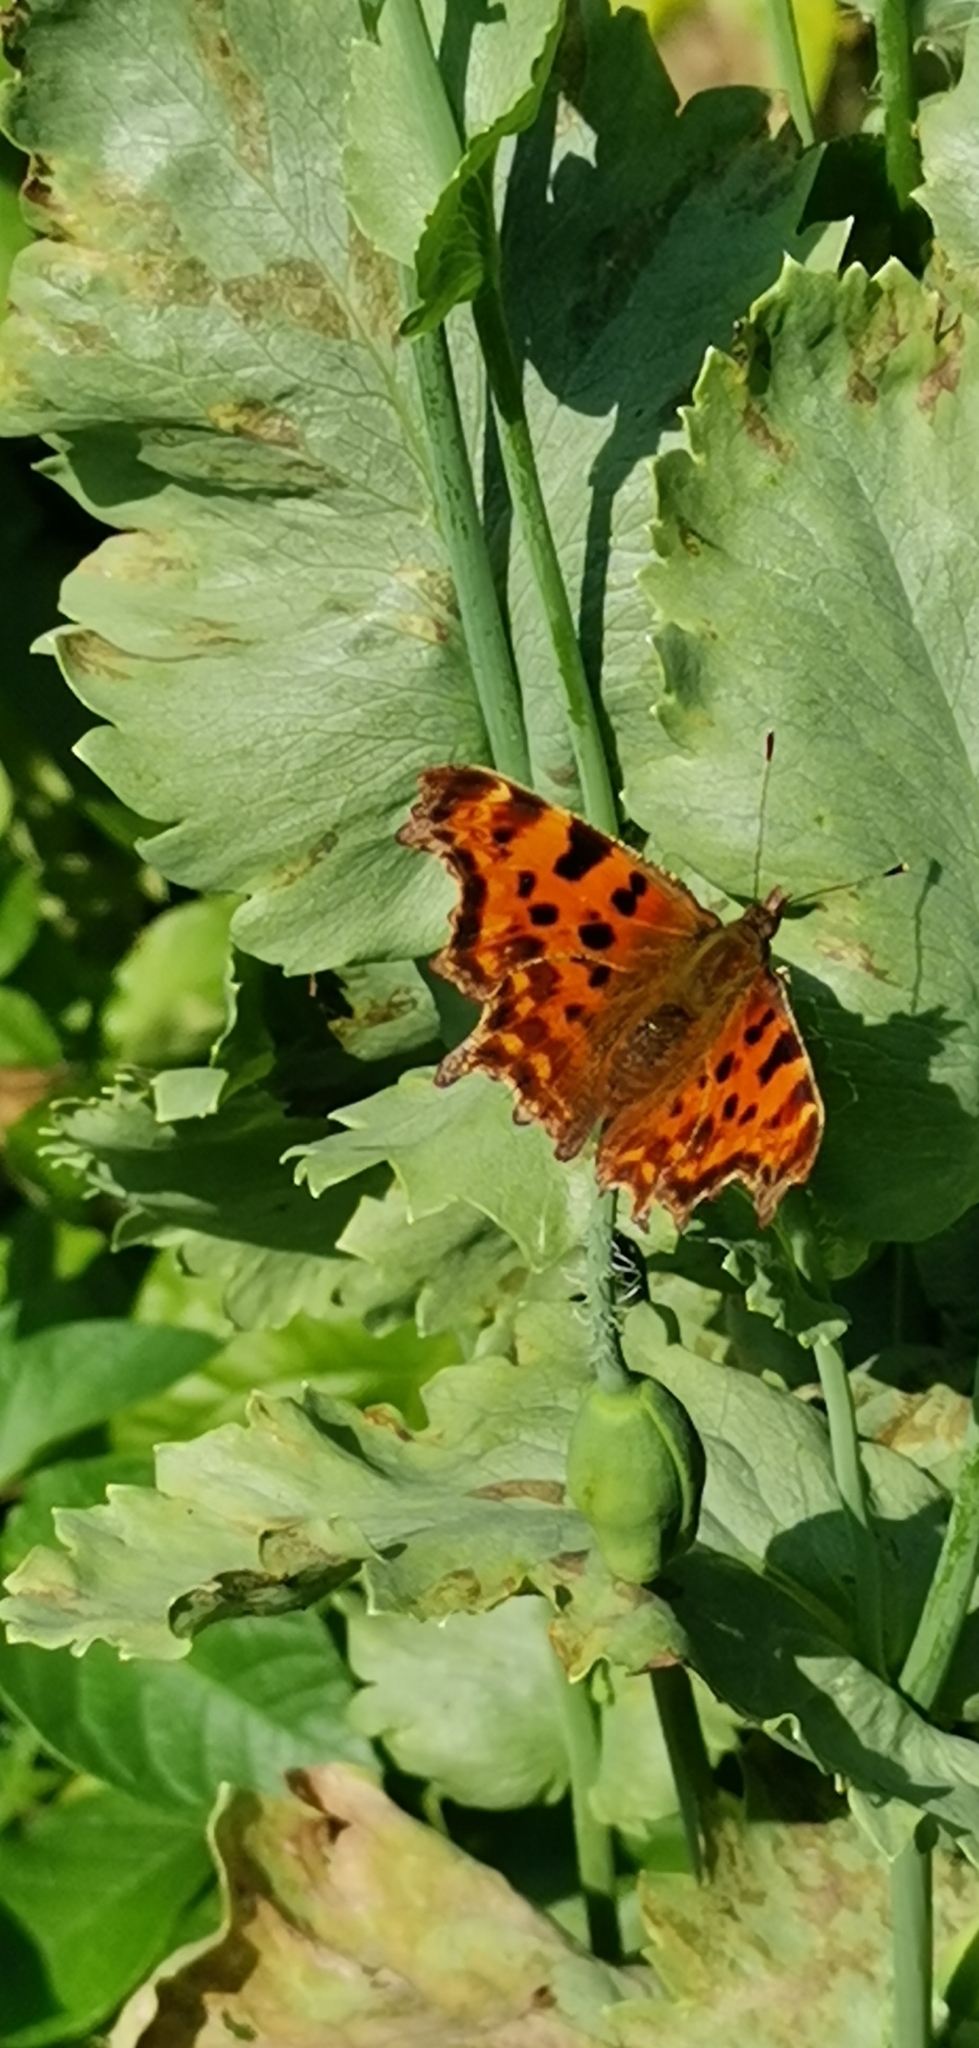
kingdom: Animalia
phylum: Arthropoda
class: Insecta
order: Lepidoptera
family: Nymphalidae
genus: Polygonia
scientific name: Polygonia c-album
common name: Comma
